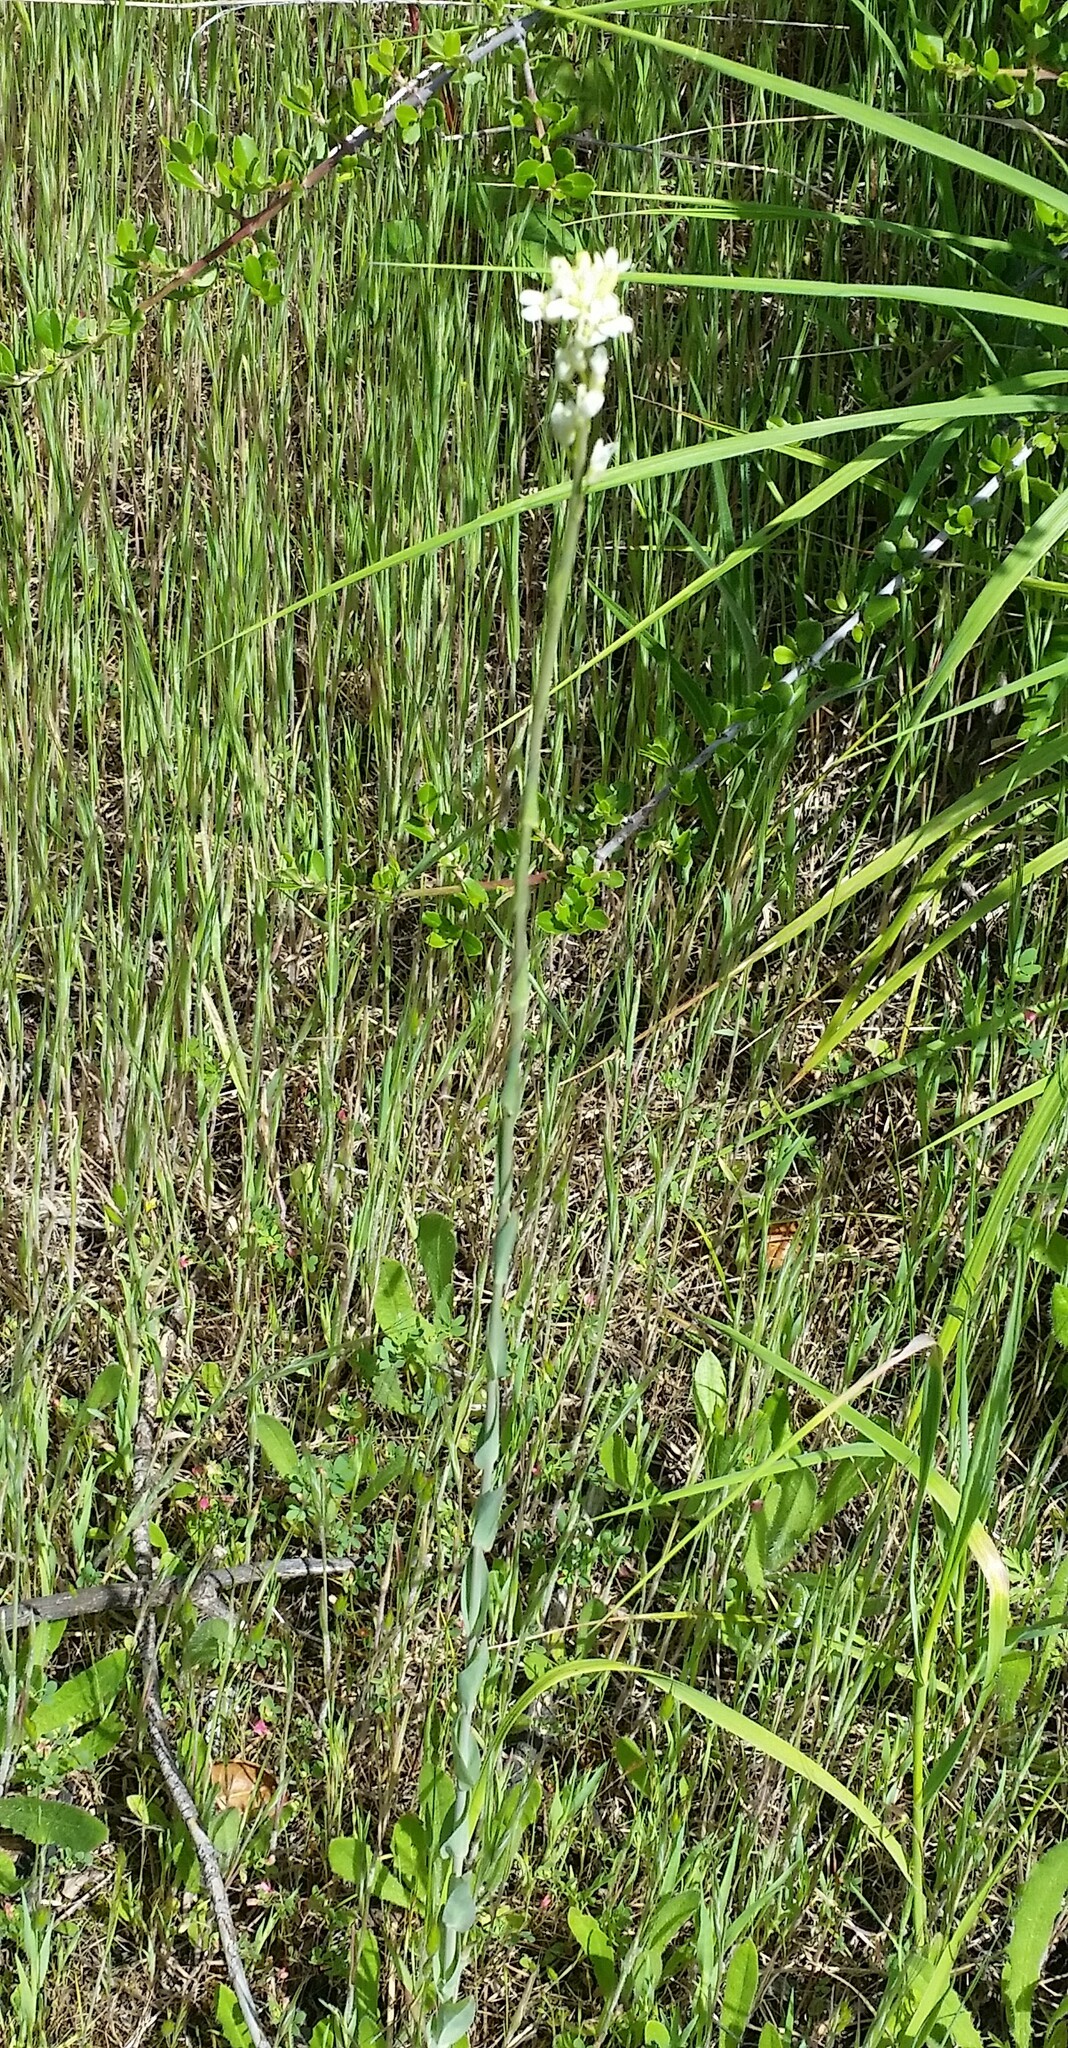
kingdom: Plantae
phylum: Tracheophyta
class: Magnoliopsida
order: Brassicales
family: Brassicaceae
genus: Turritis
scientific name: Turritis glabra
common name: Tower rockcress
